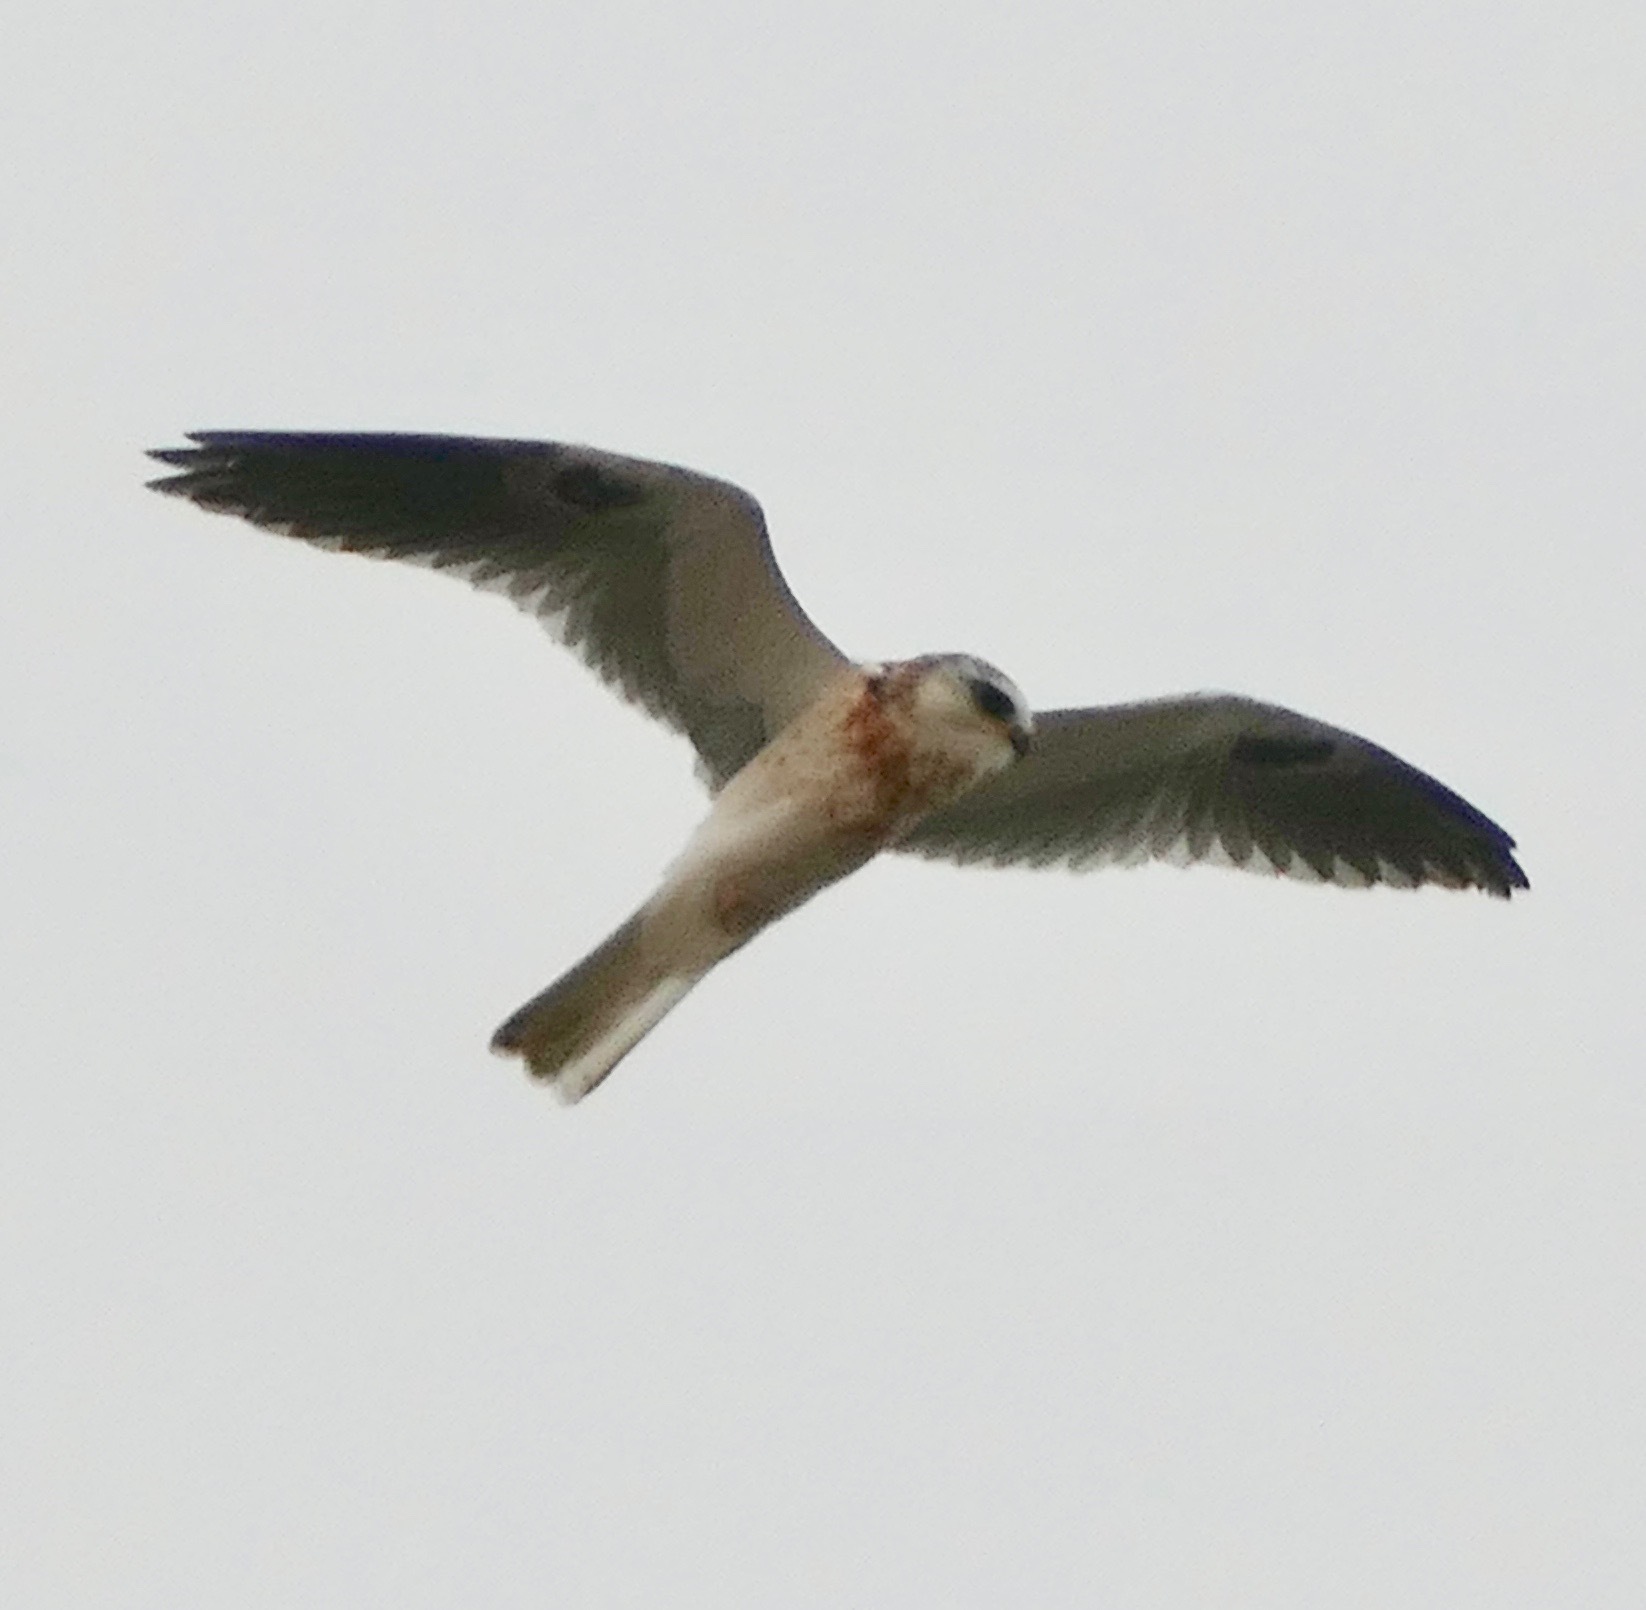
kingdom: Animalia
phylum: Chordata
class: Aves
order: Accipitriformes
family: Accipitridae
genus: Elanus
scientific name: Elanus leucurus
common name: White-tailed kite
